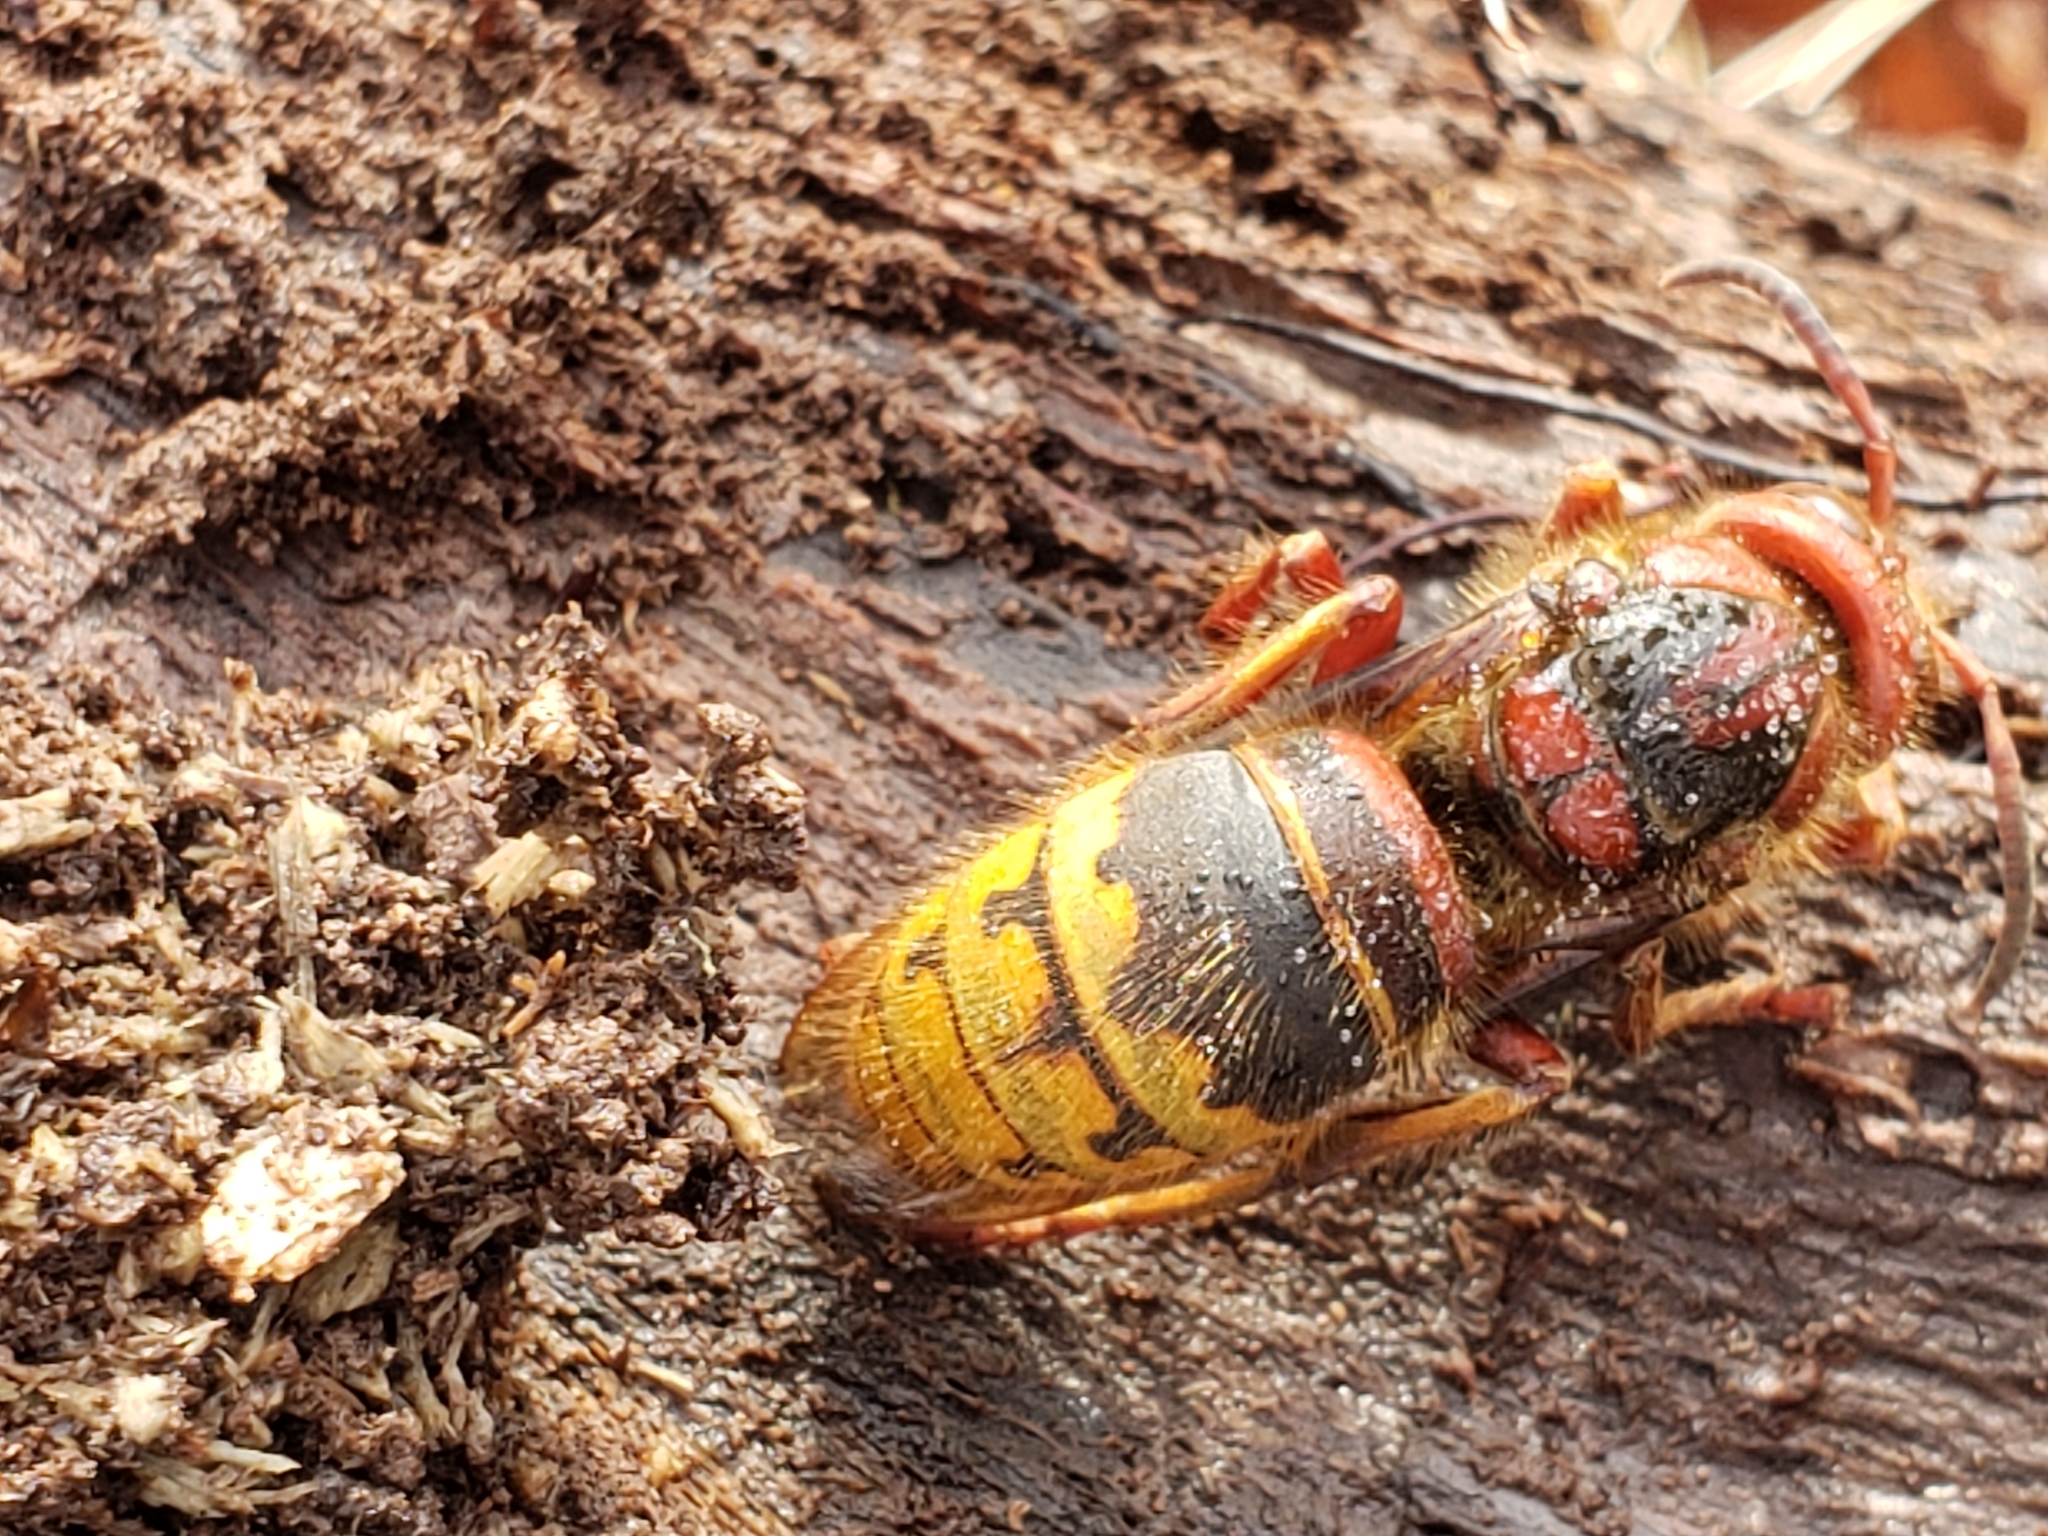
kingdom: Animalia
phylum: Arthropoda
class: Insecta
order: Hymenoptera
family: Vespidae
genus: Vespa
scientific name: Vespa crabro
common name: Hornet
